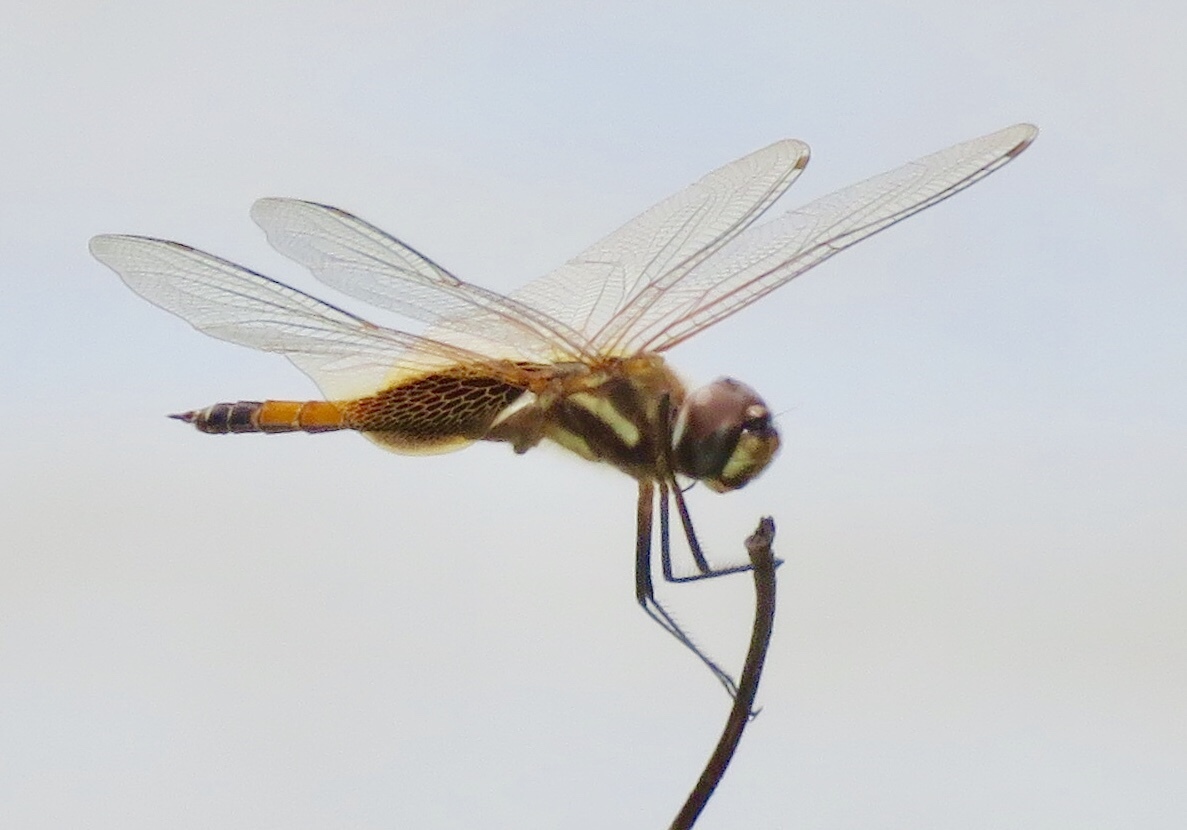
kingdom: Animalia
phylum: Arthropoda
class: Insecta
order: Odonata
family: Libellulidae
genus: Tramea
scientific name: Tramea darwini
